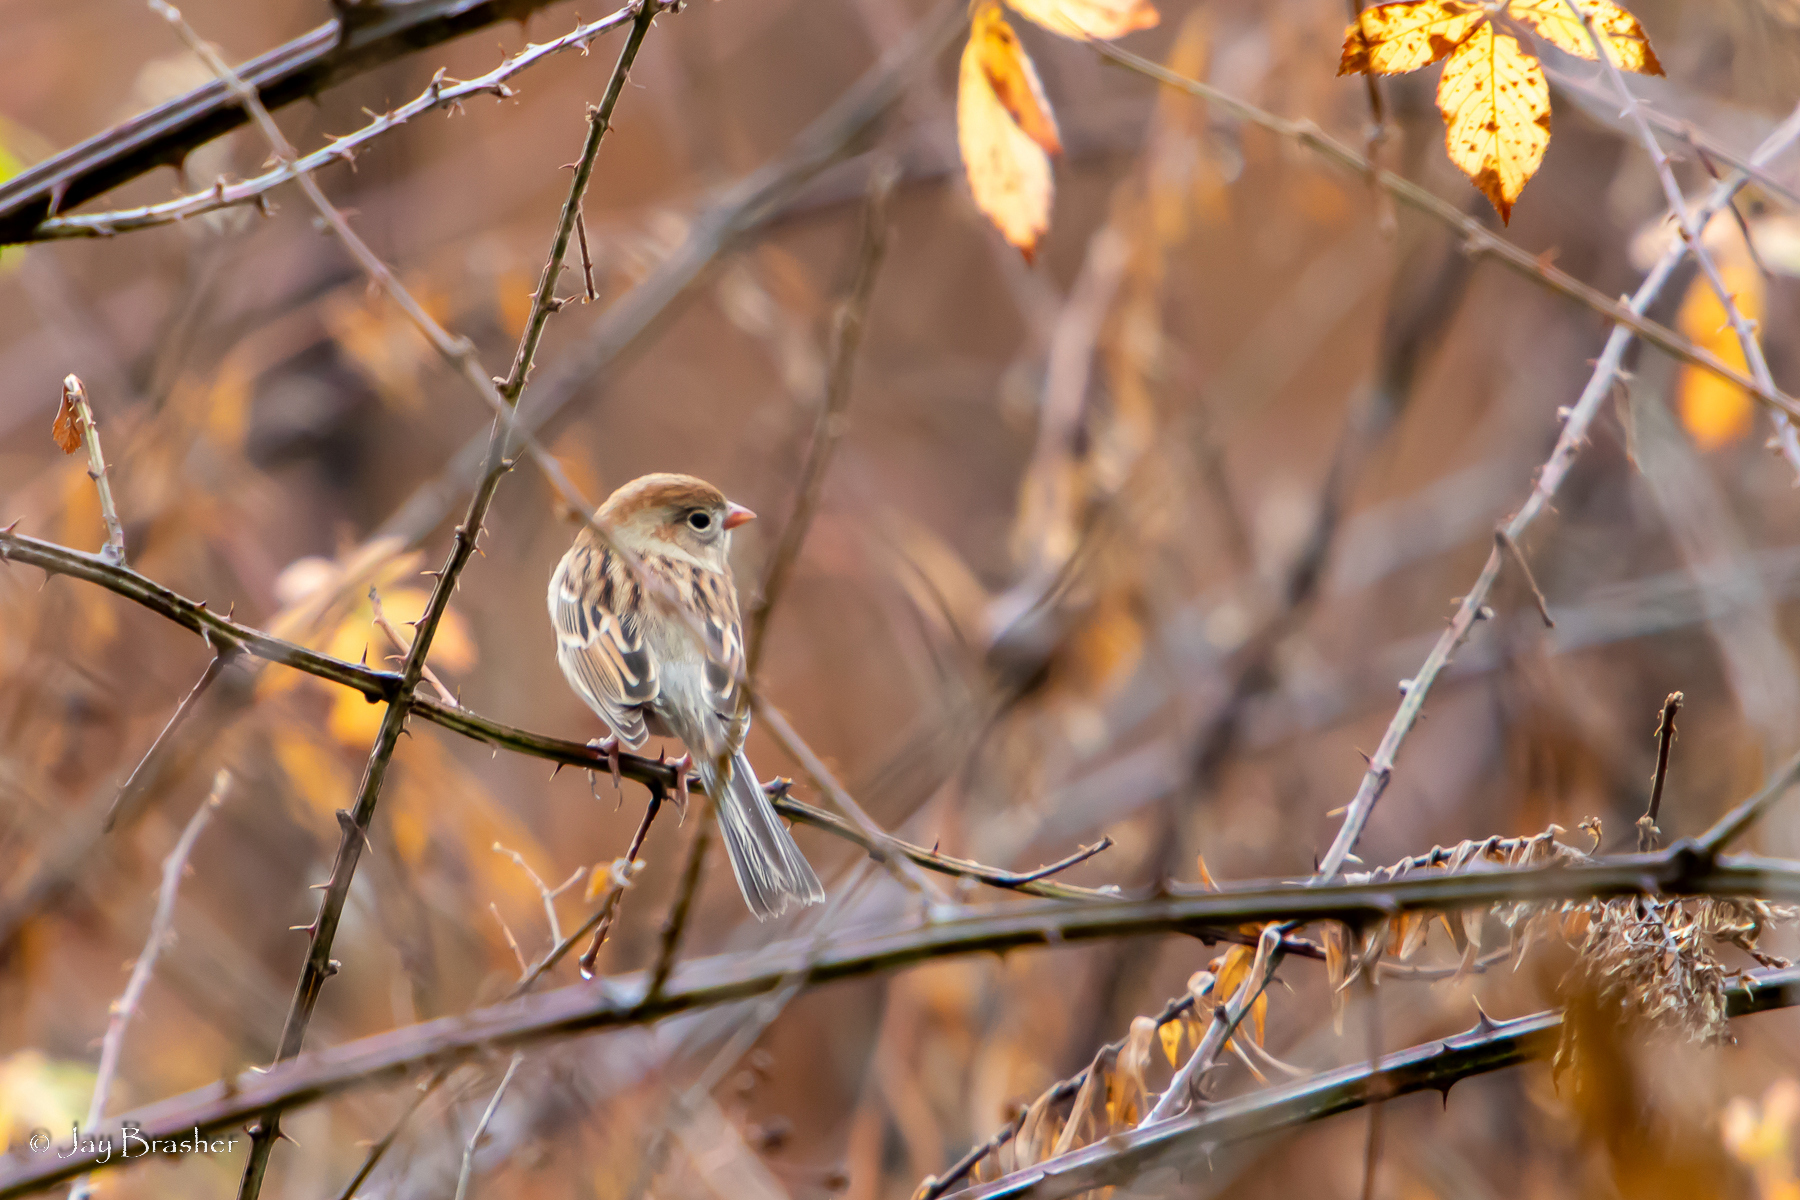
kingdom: Animalia
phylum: Chordata
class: Aves
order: Passeriformes
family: Passerellidae
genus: Spizella
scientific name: Spizella pusilla
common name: Field sparrow
